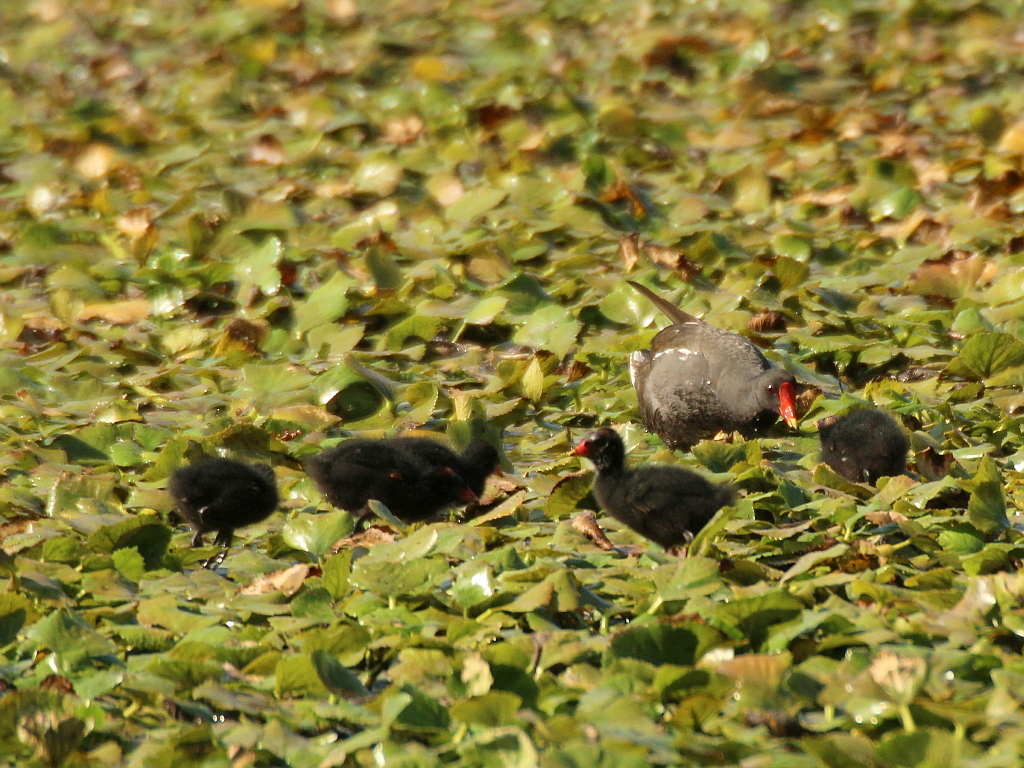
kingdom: Animalia
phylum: Chordata
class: Aves
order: Gruiformes
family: Rallidae
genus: Gallinula
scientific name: Gallinula chloropus
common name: Common moorhen
